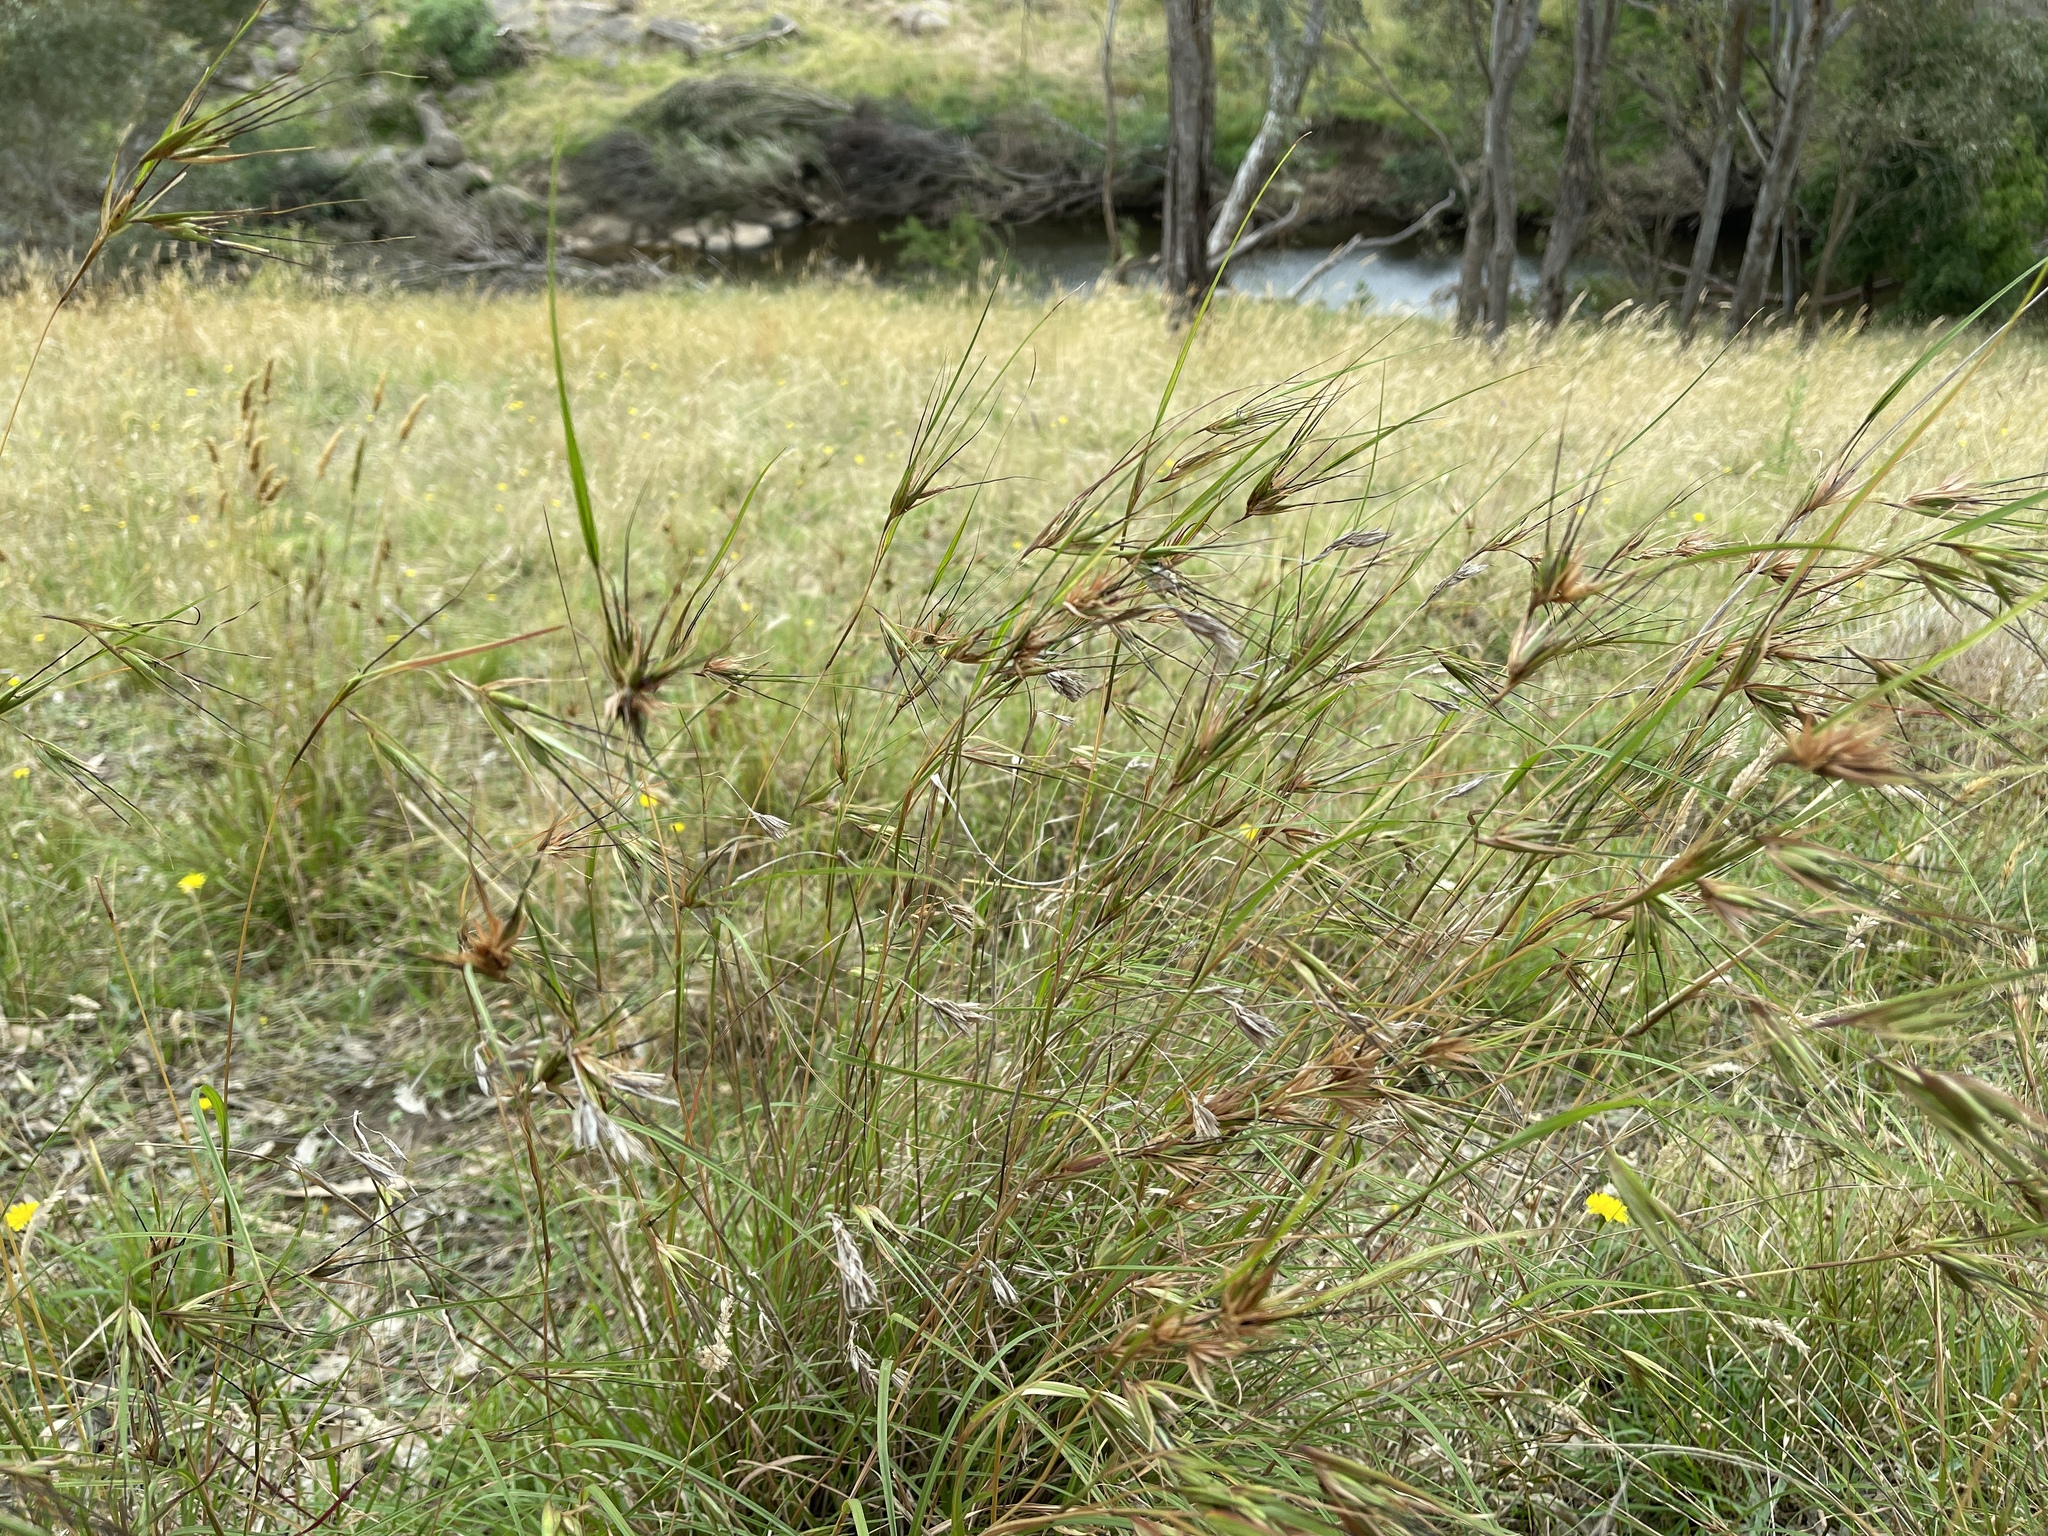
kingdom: Plantae
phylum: Tracheophyta
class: Liliopsida
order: Poales
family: Poaceae
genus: Themeda
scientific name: Themeda triandra
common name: Kangaroo grass
